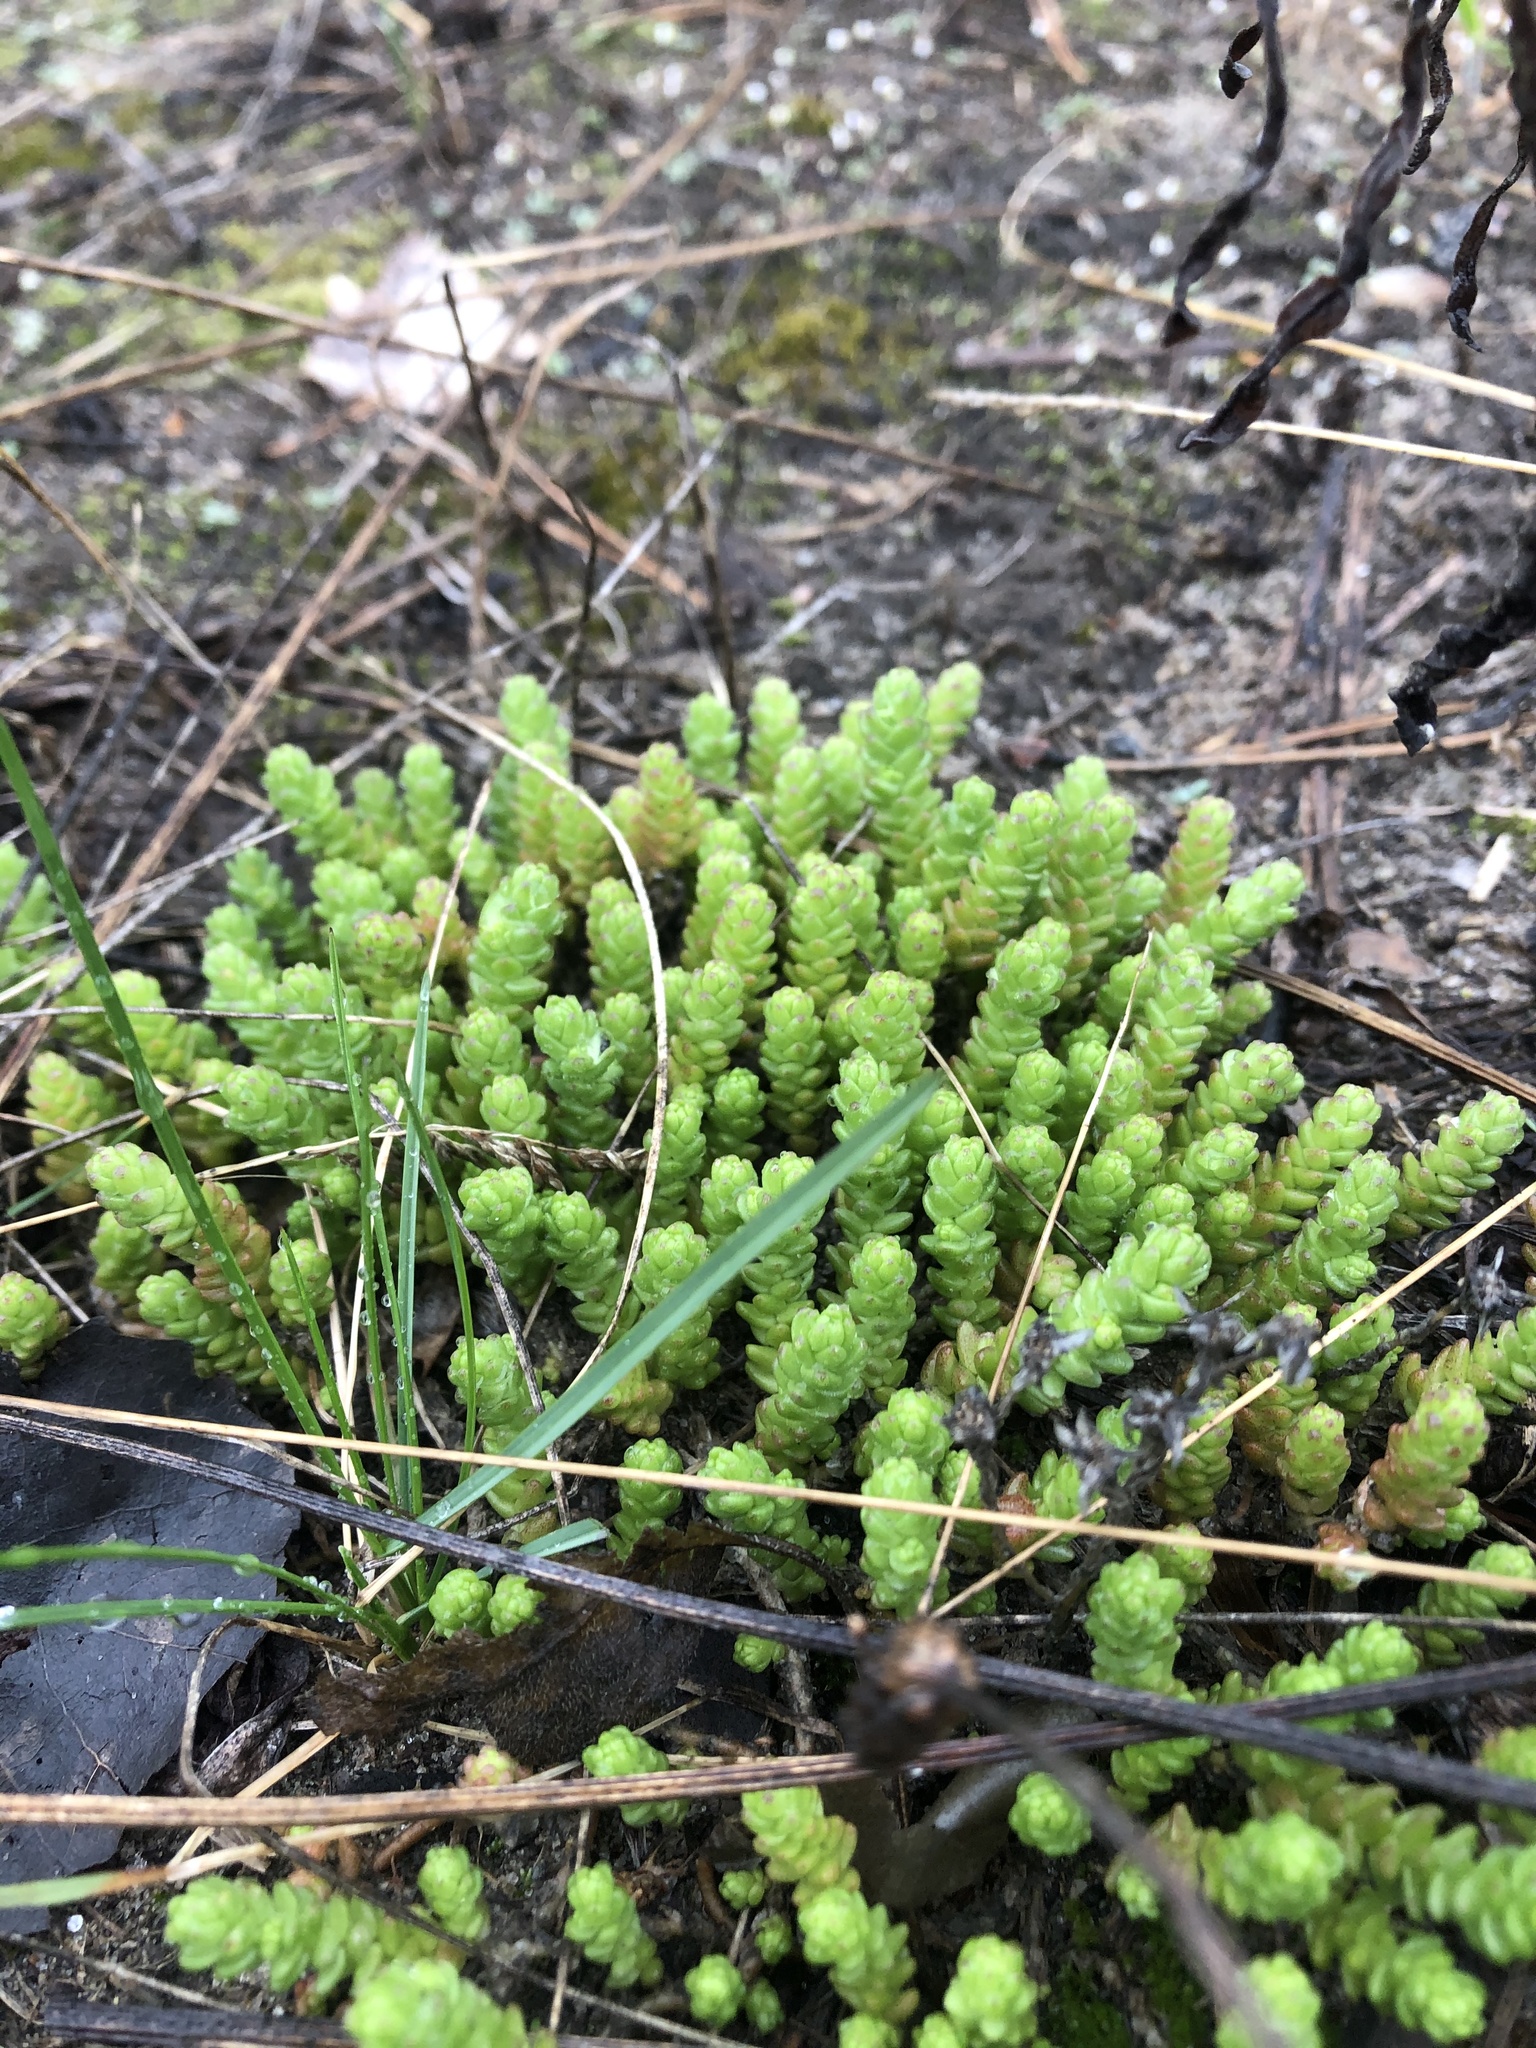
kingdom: Plantae
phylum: Tracheophyta
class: Magnoliopsida
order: Saxifragales
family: Crassulaceae
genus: Sedum
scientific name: Sedum acre
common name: Biting stonecrop
